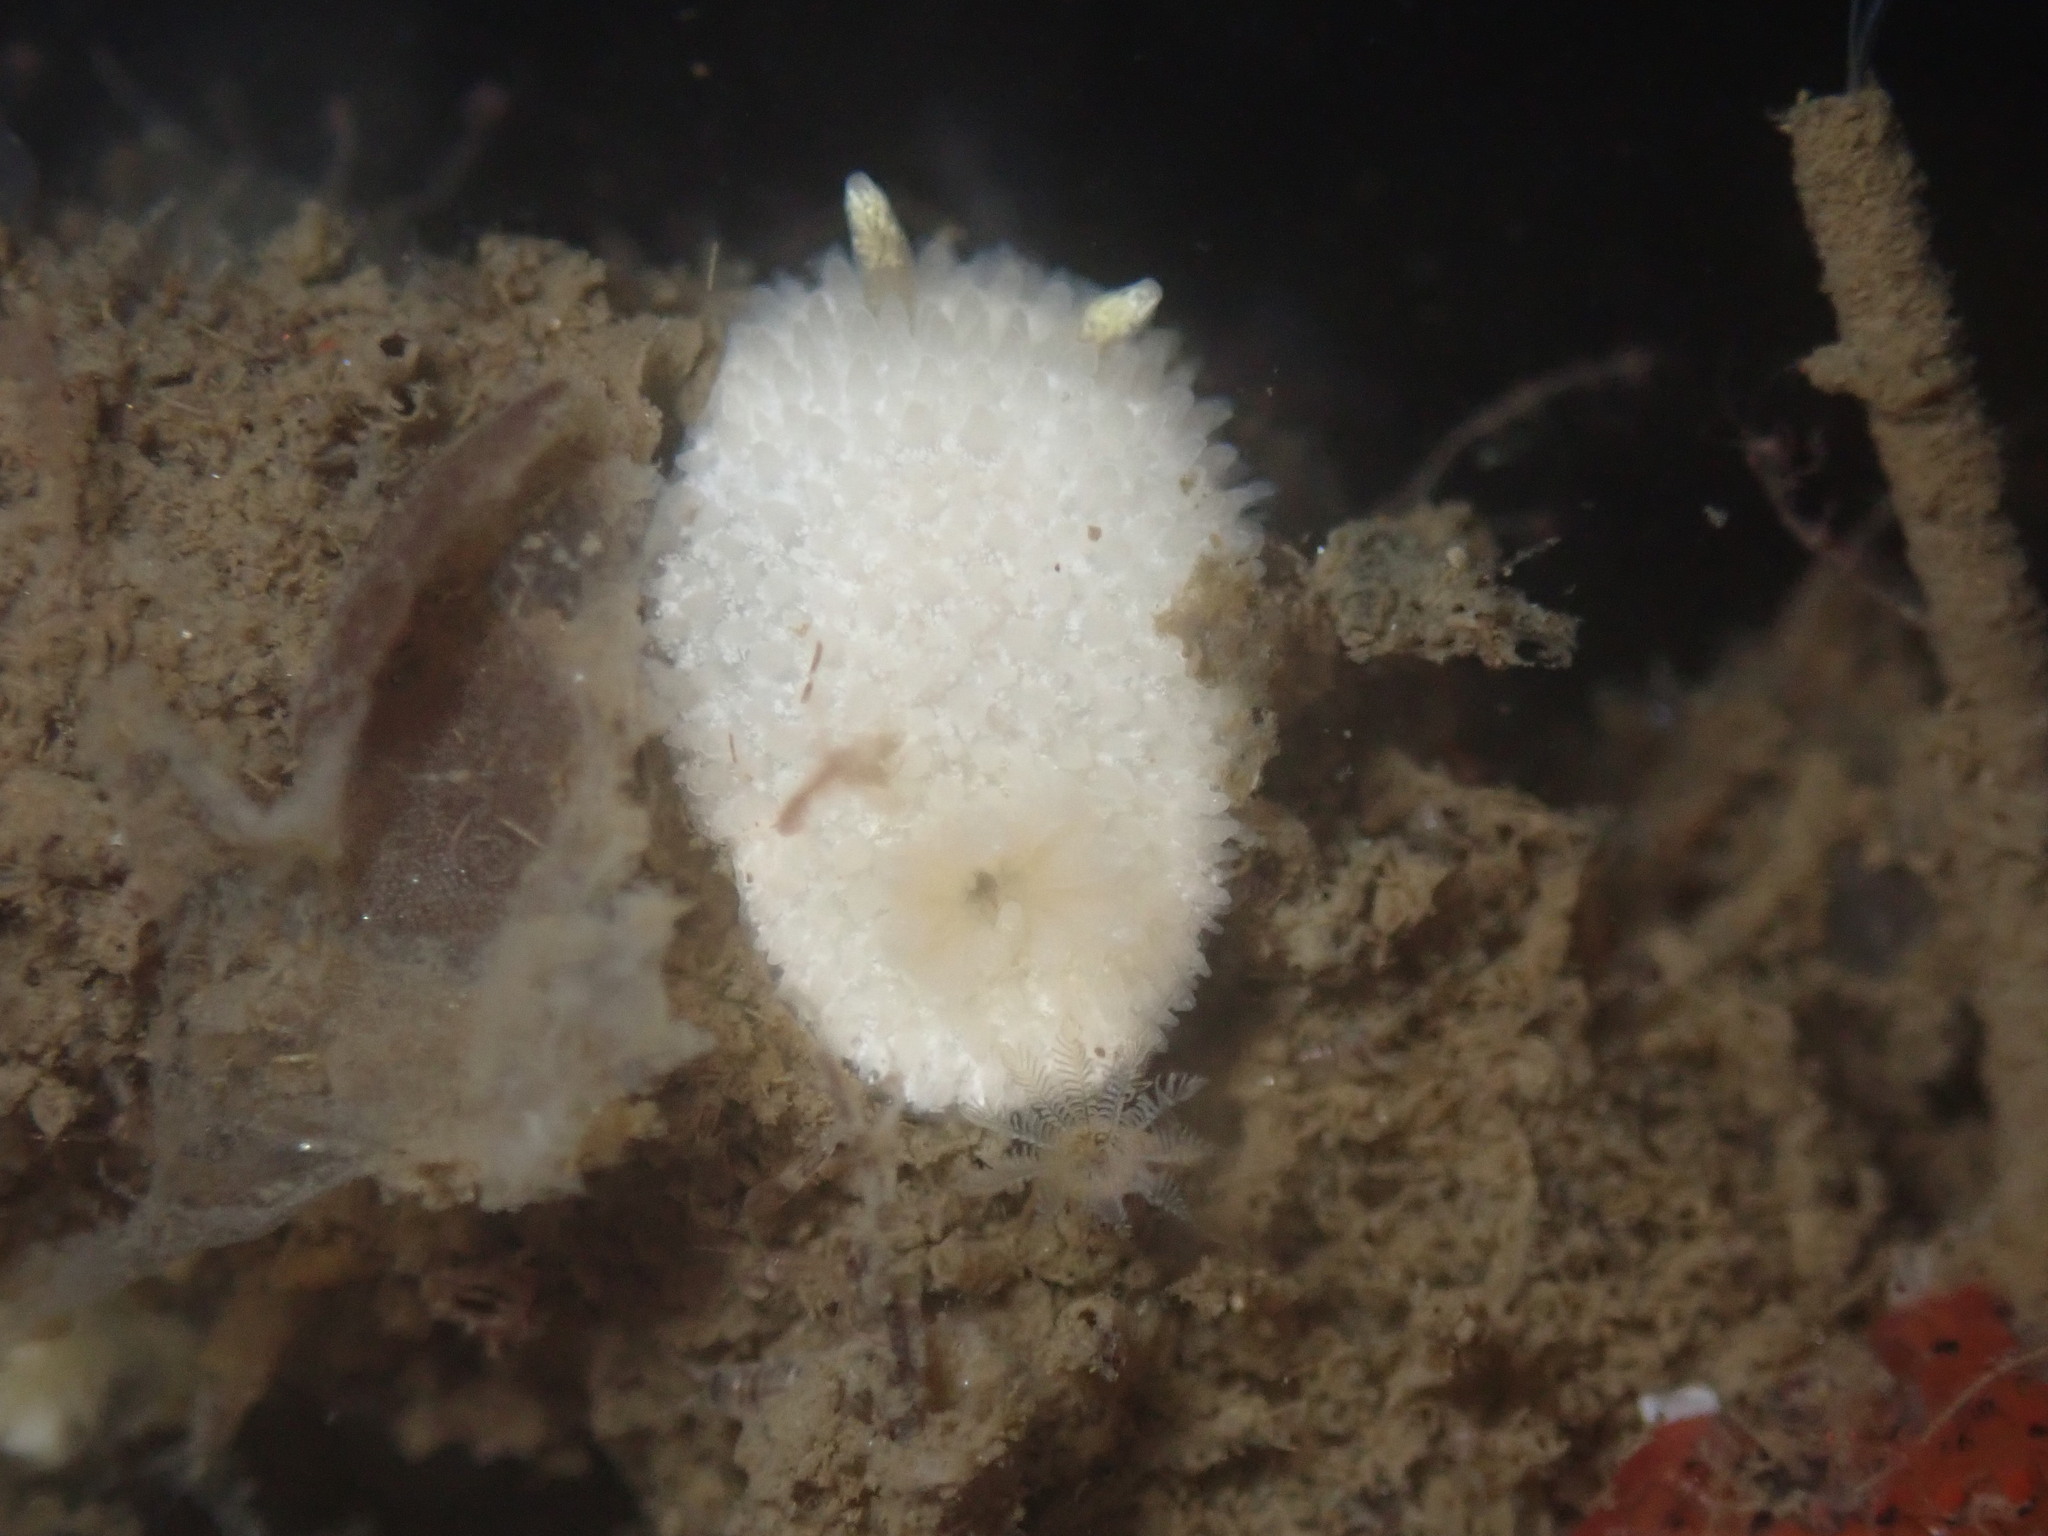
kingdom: Animalia
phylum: Mollusca
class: Gastropoda
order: Nudibranchia
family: Calycidorididae
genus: Diaphorodoris
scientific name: Diaphorodoris lirulatocauda
